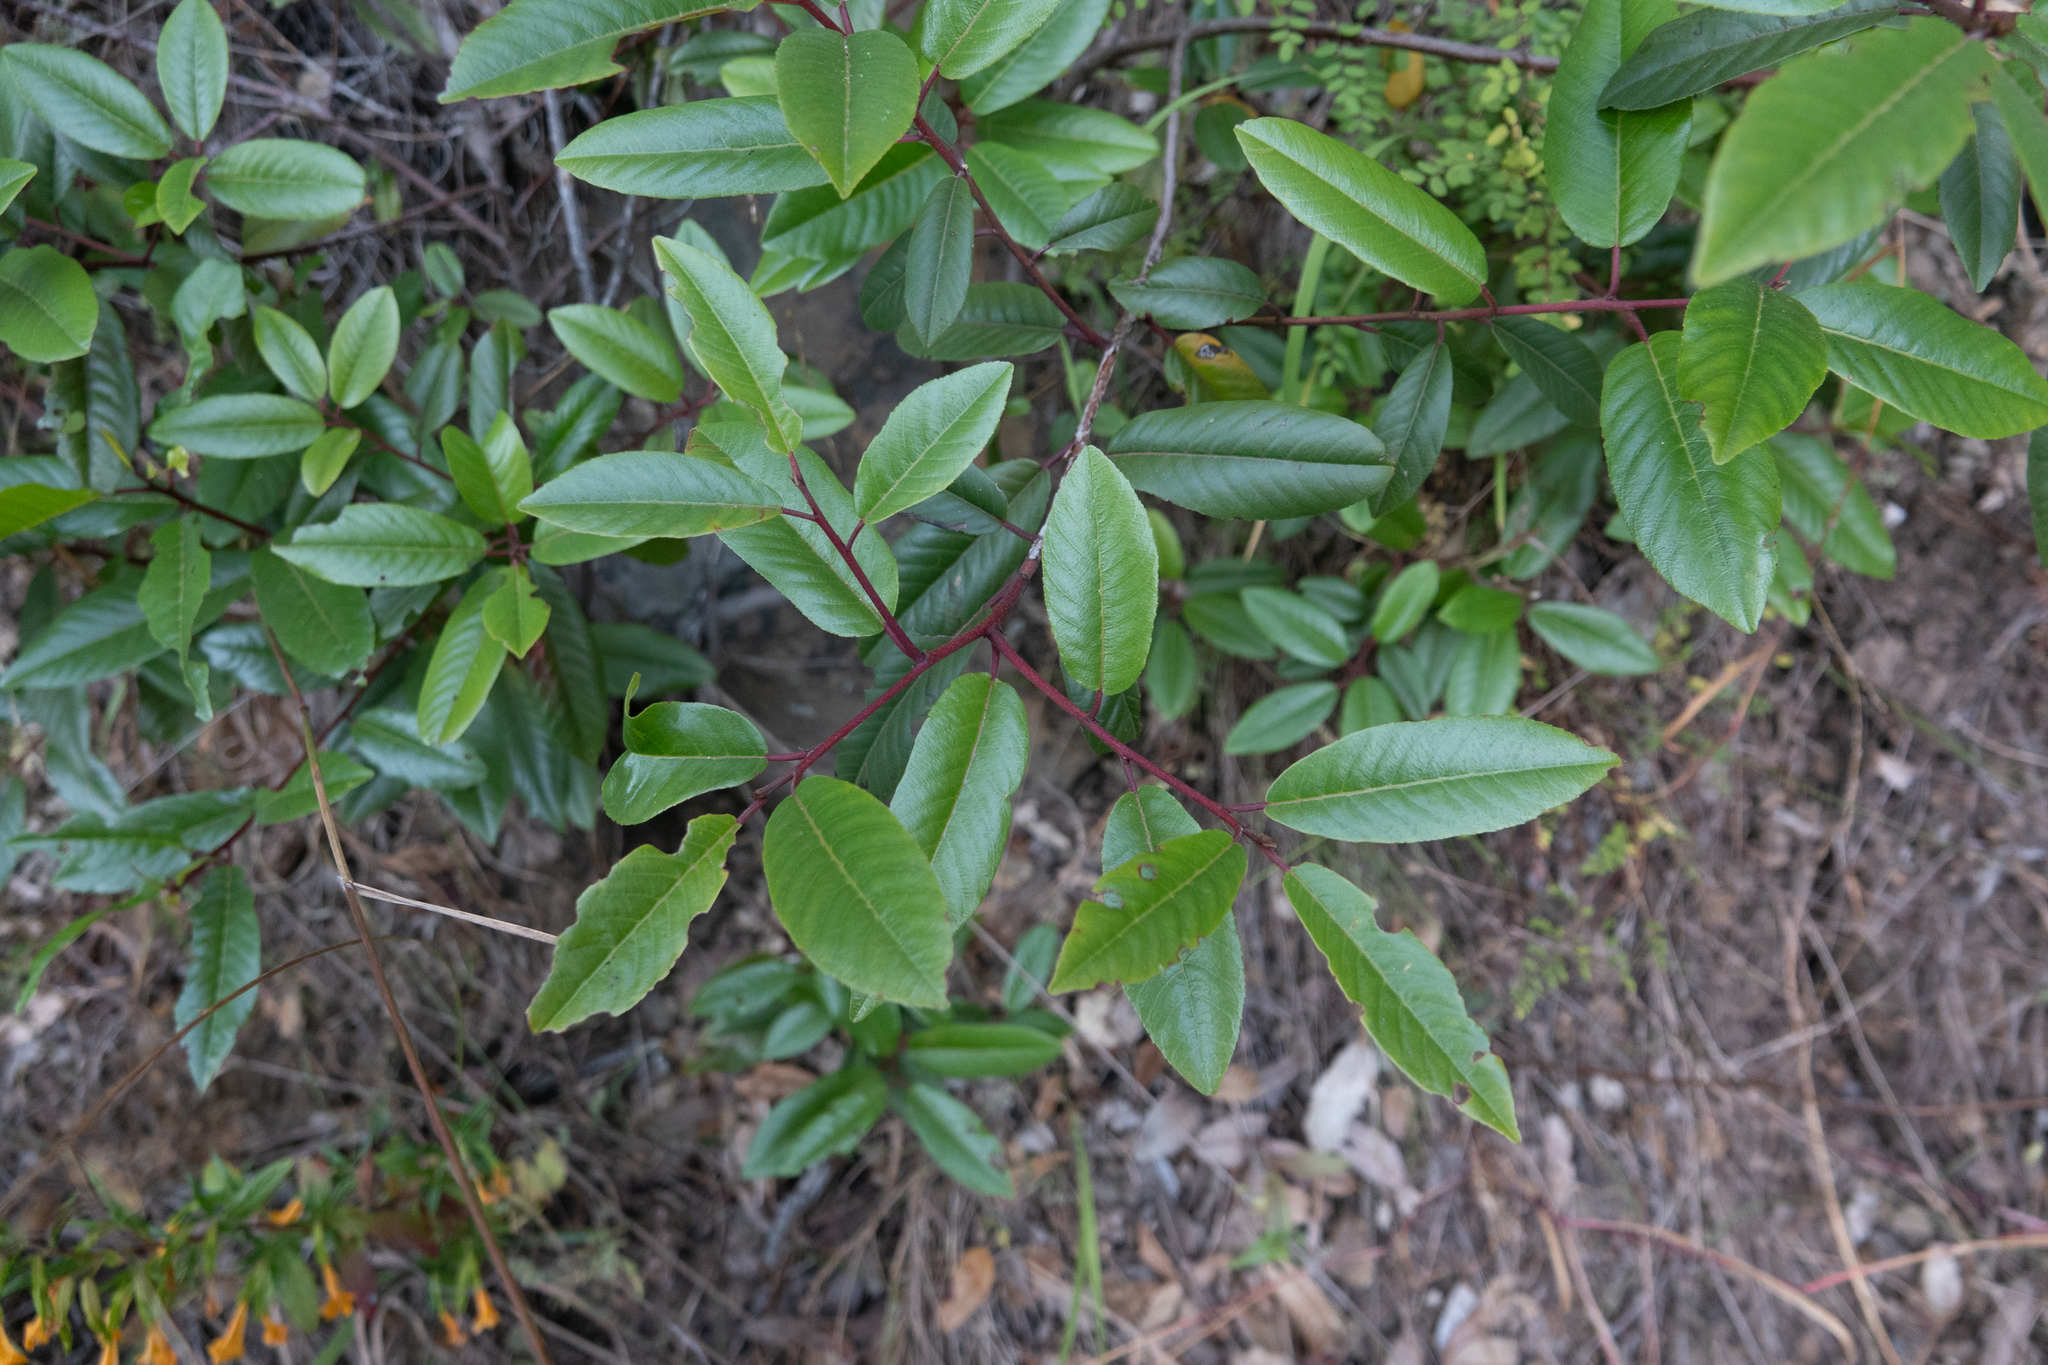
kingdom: Plantae
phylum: Tracheophyta
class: Magnoliopsida
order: Rosales
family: Rhamnaceae
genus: Frangula
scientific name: Frangula californica
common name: California buckthorn
